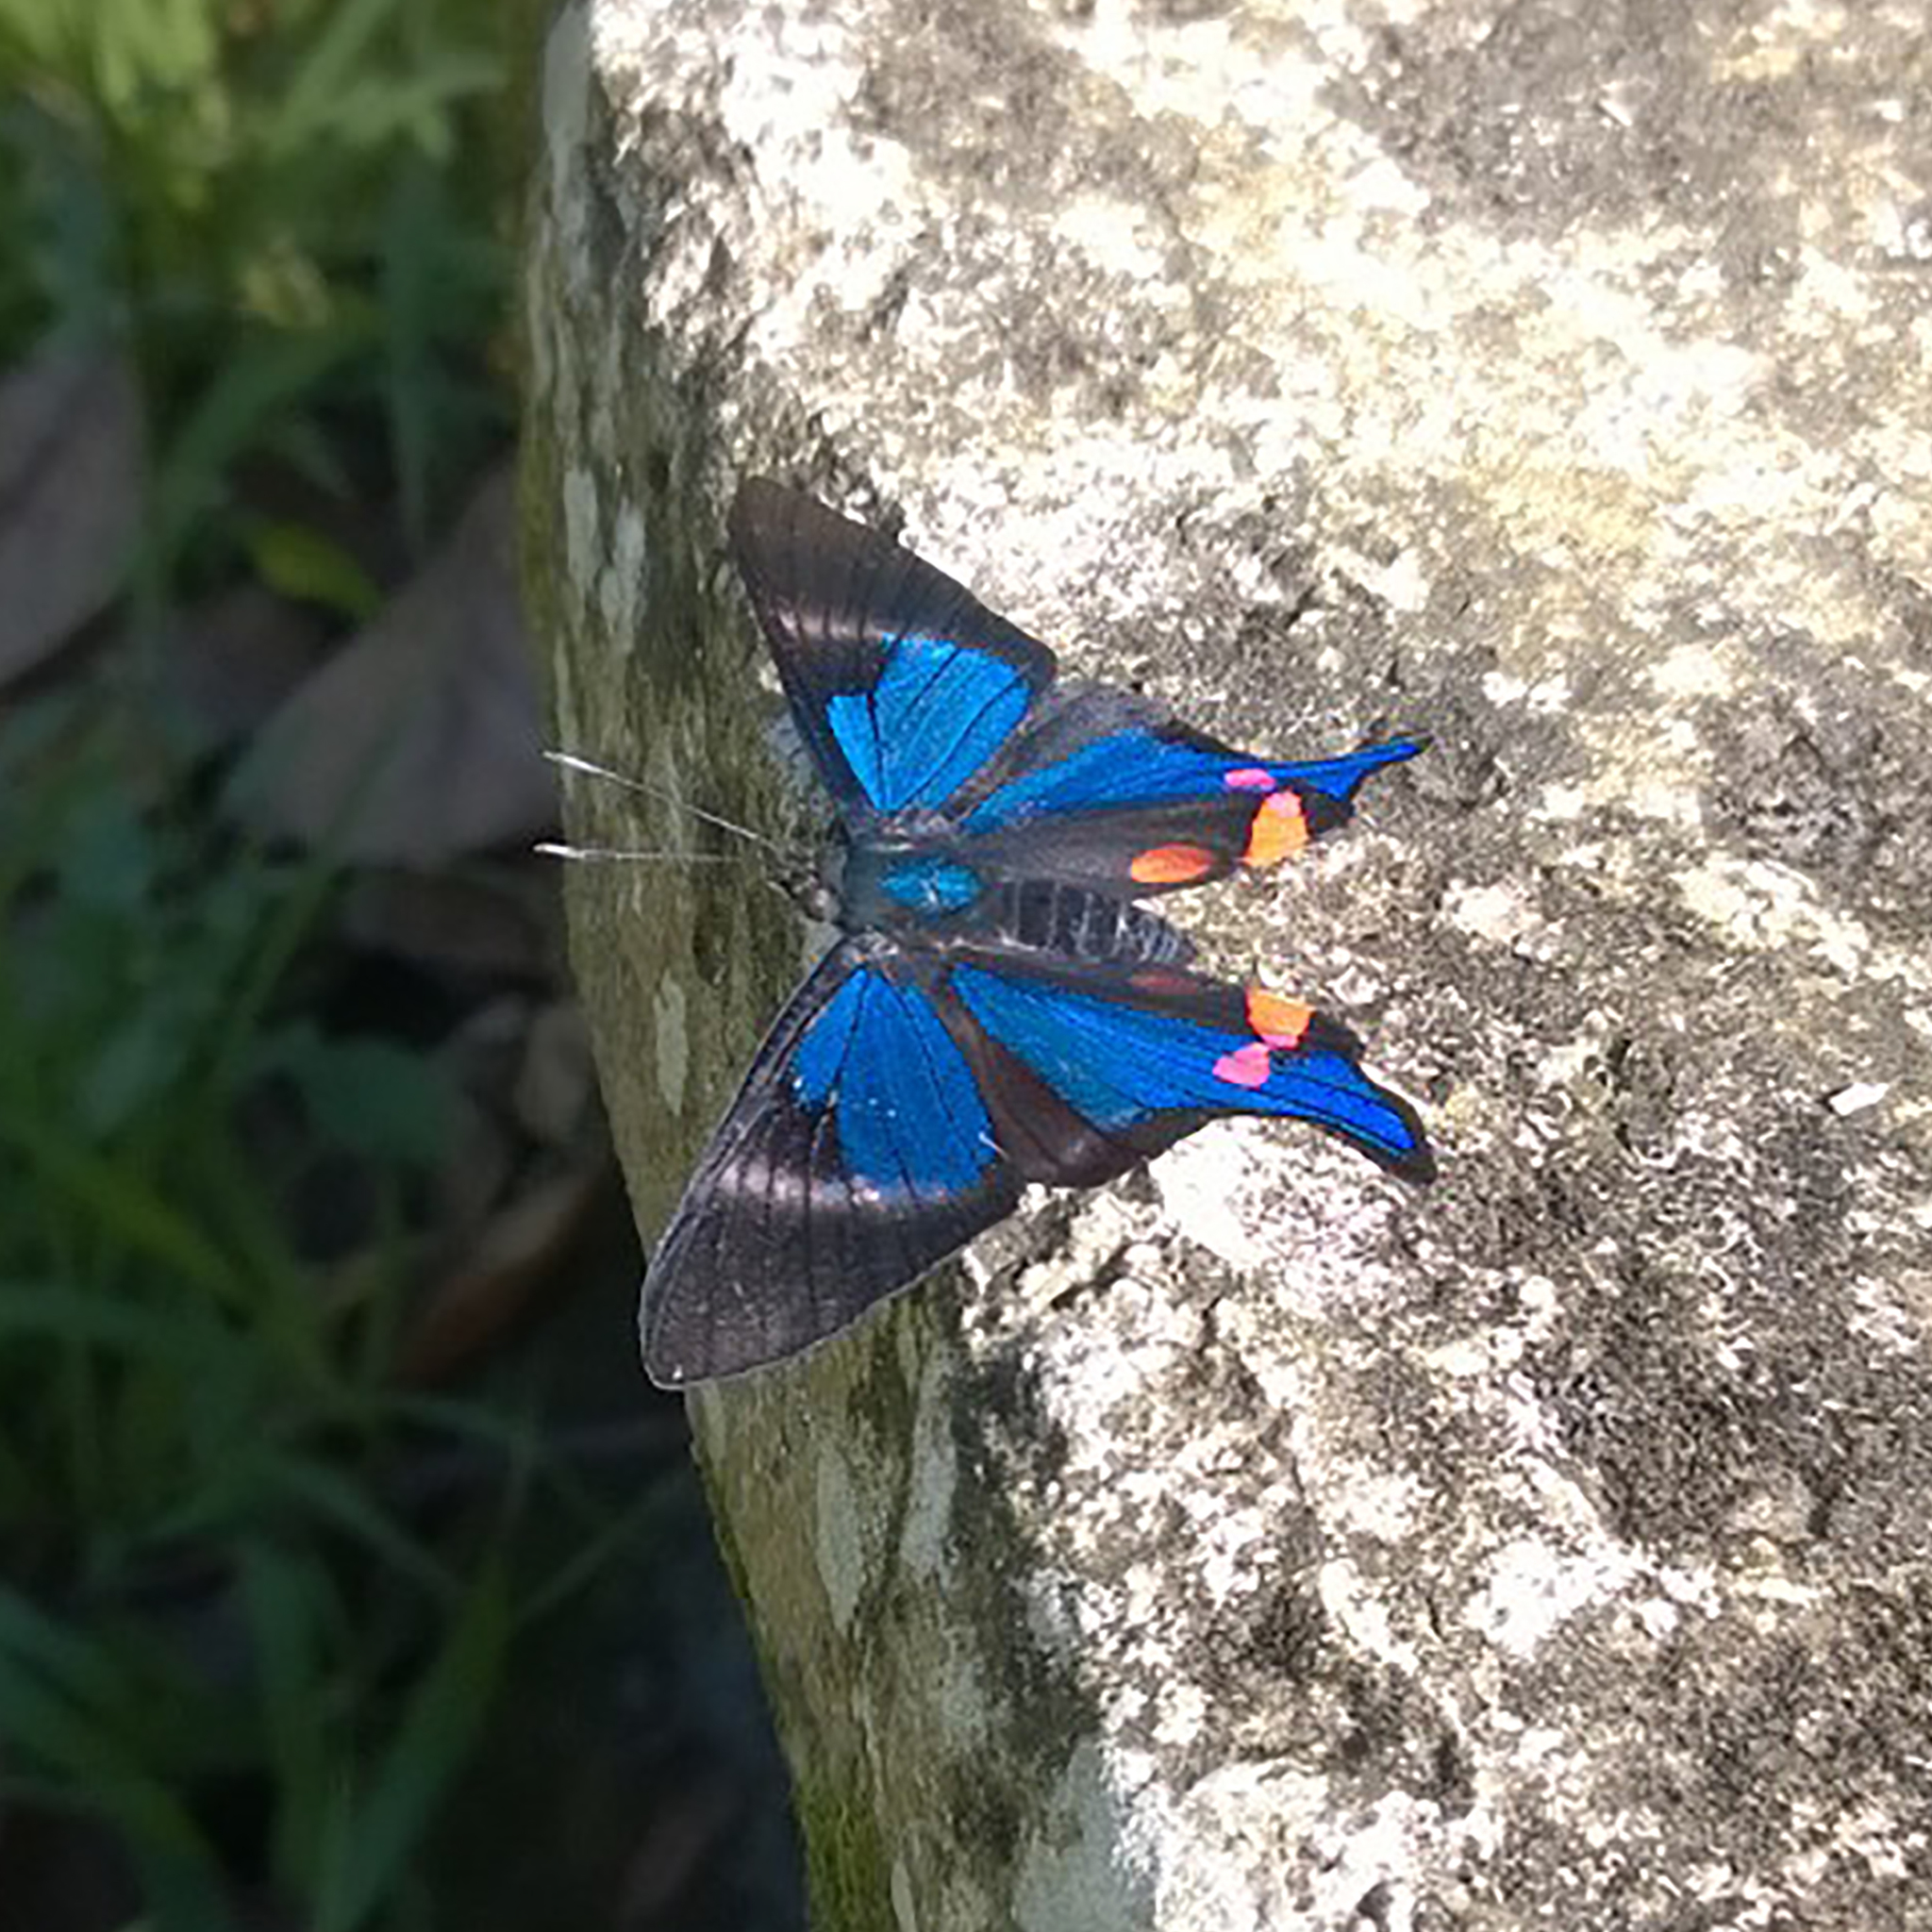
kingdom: Animalia
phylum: Arthropoda
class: Insecta
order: Lepidoptera
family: Riodinidae
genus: Rhetus
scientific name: Rhetus periander
